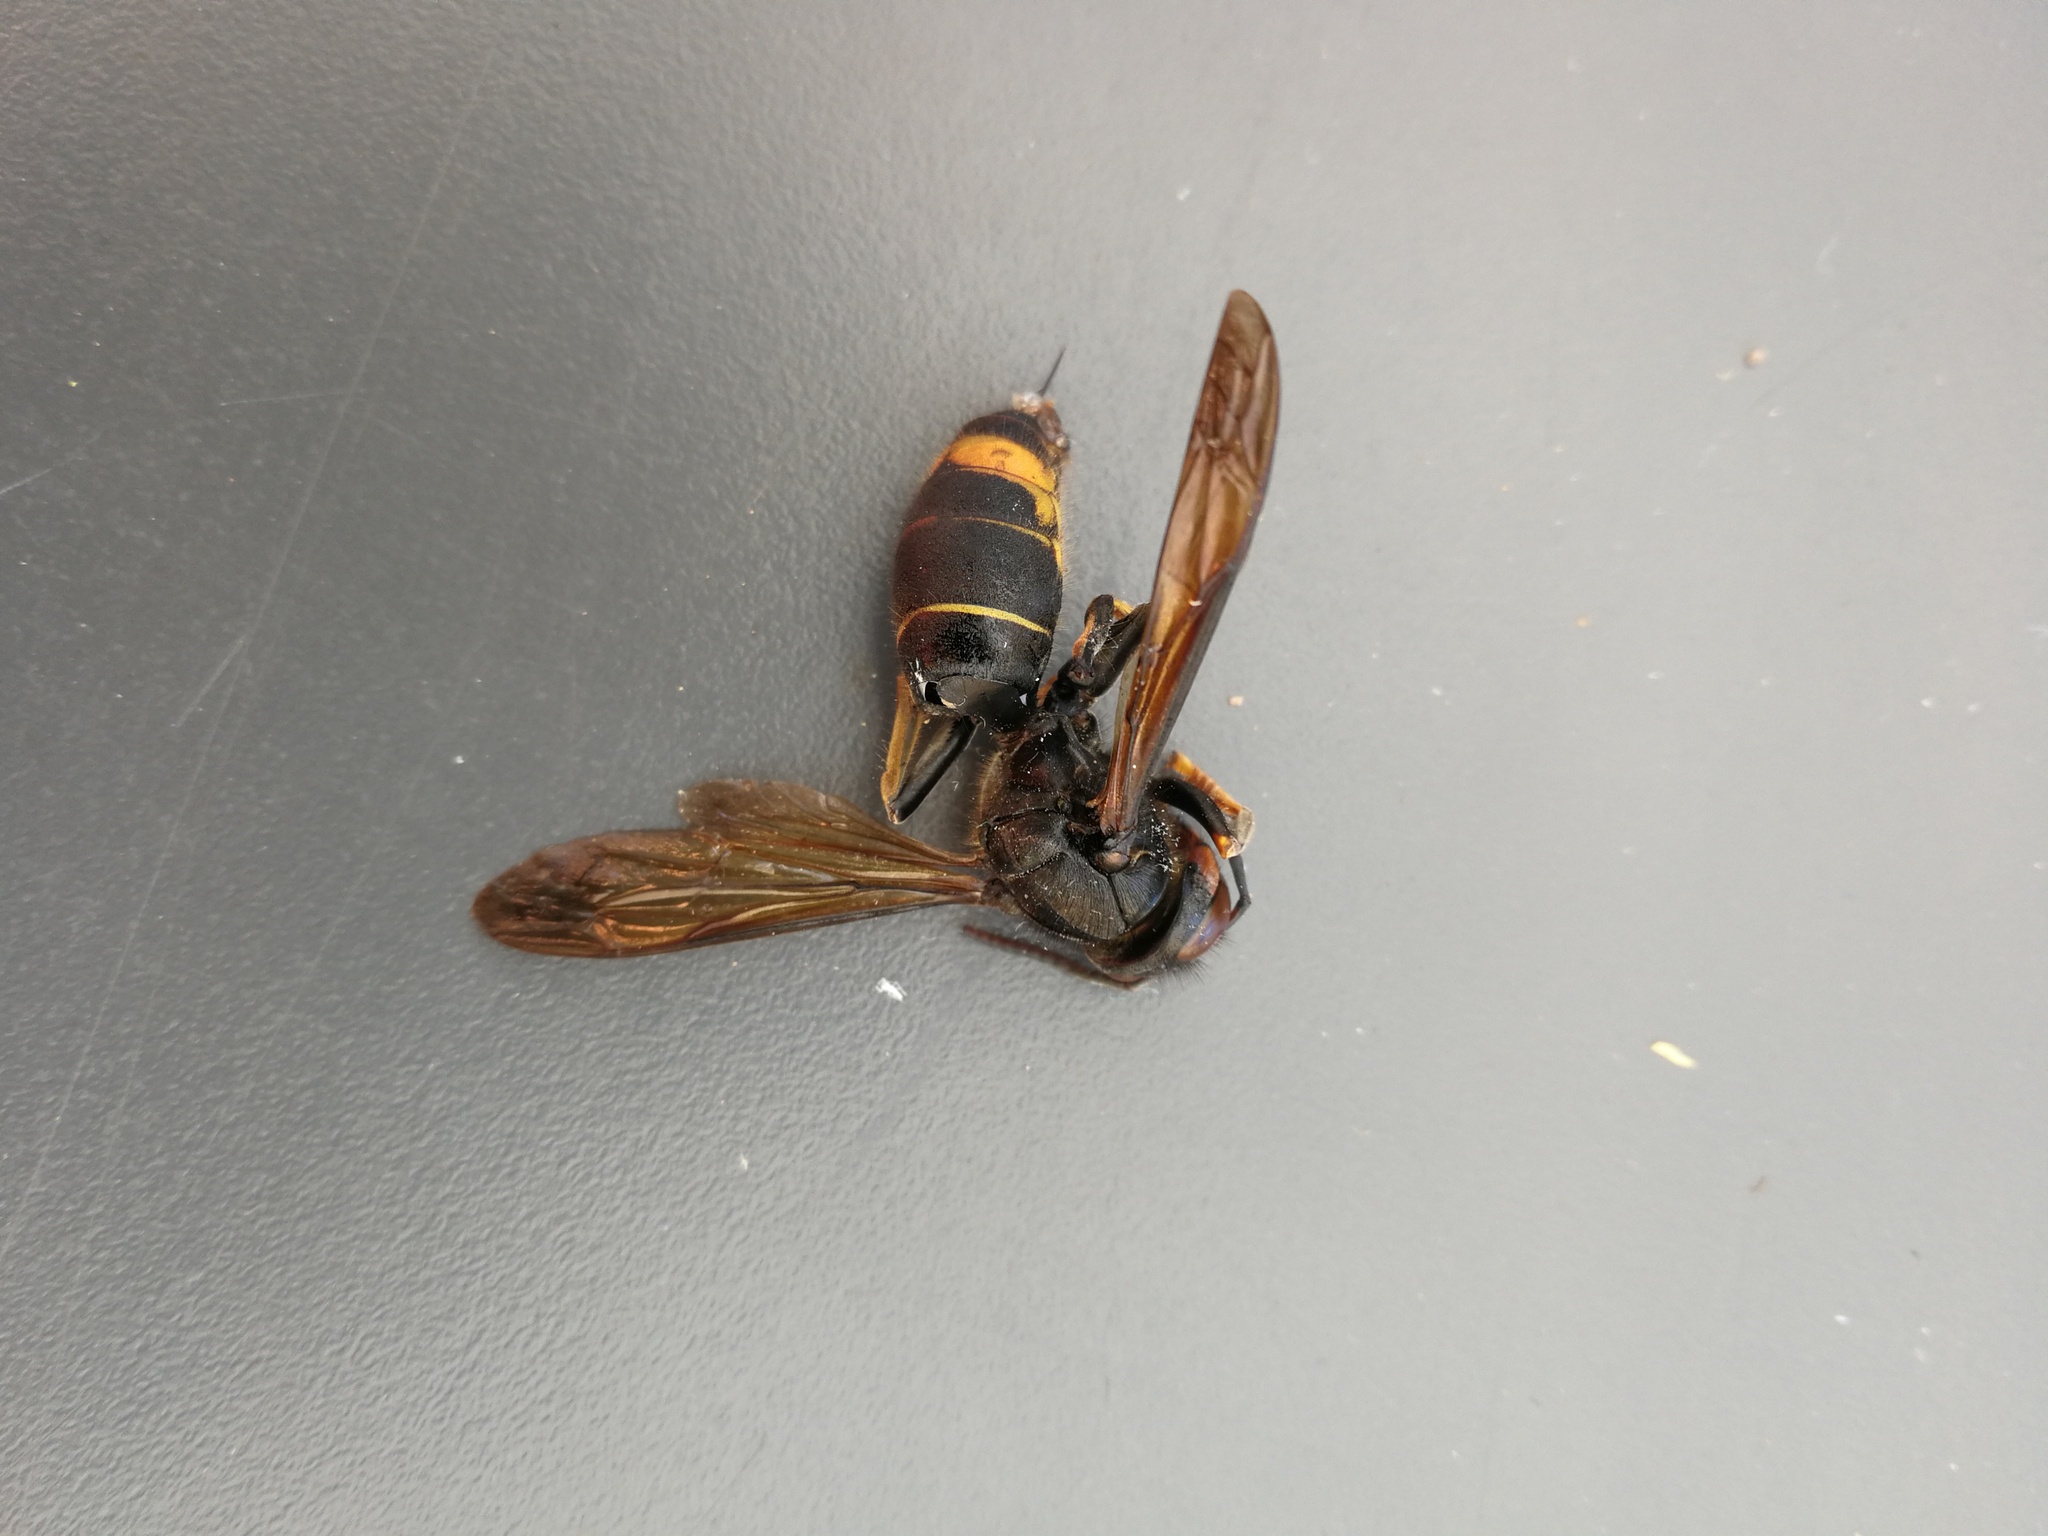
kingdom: Animalia
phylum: Arthropoda
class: Insecta
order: Hymenoptera
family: Vespidae
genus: Vespa
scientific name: Vespa velutina
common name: Asian hornet
